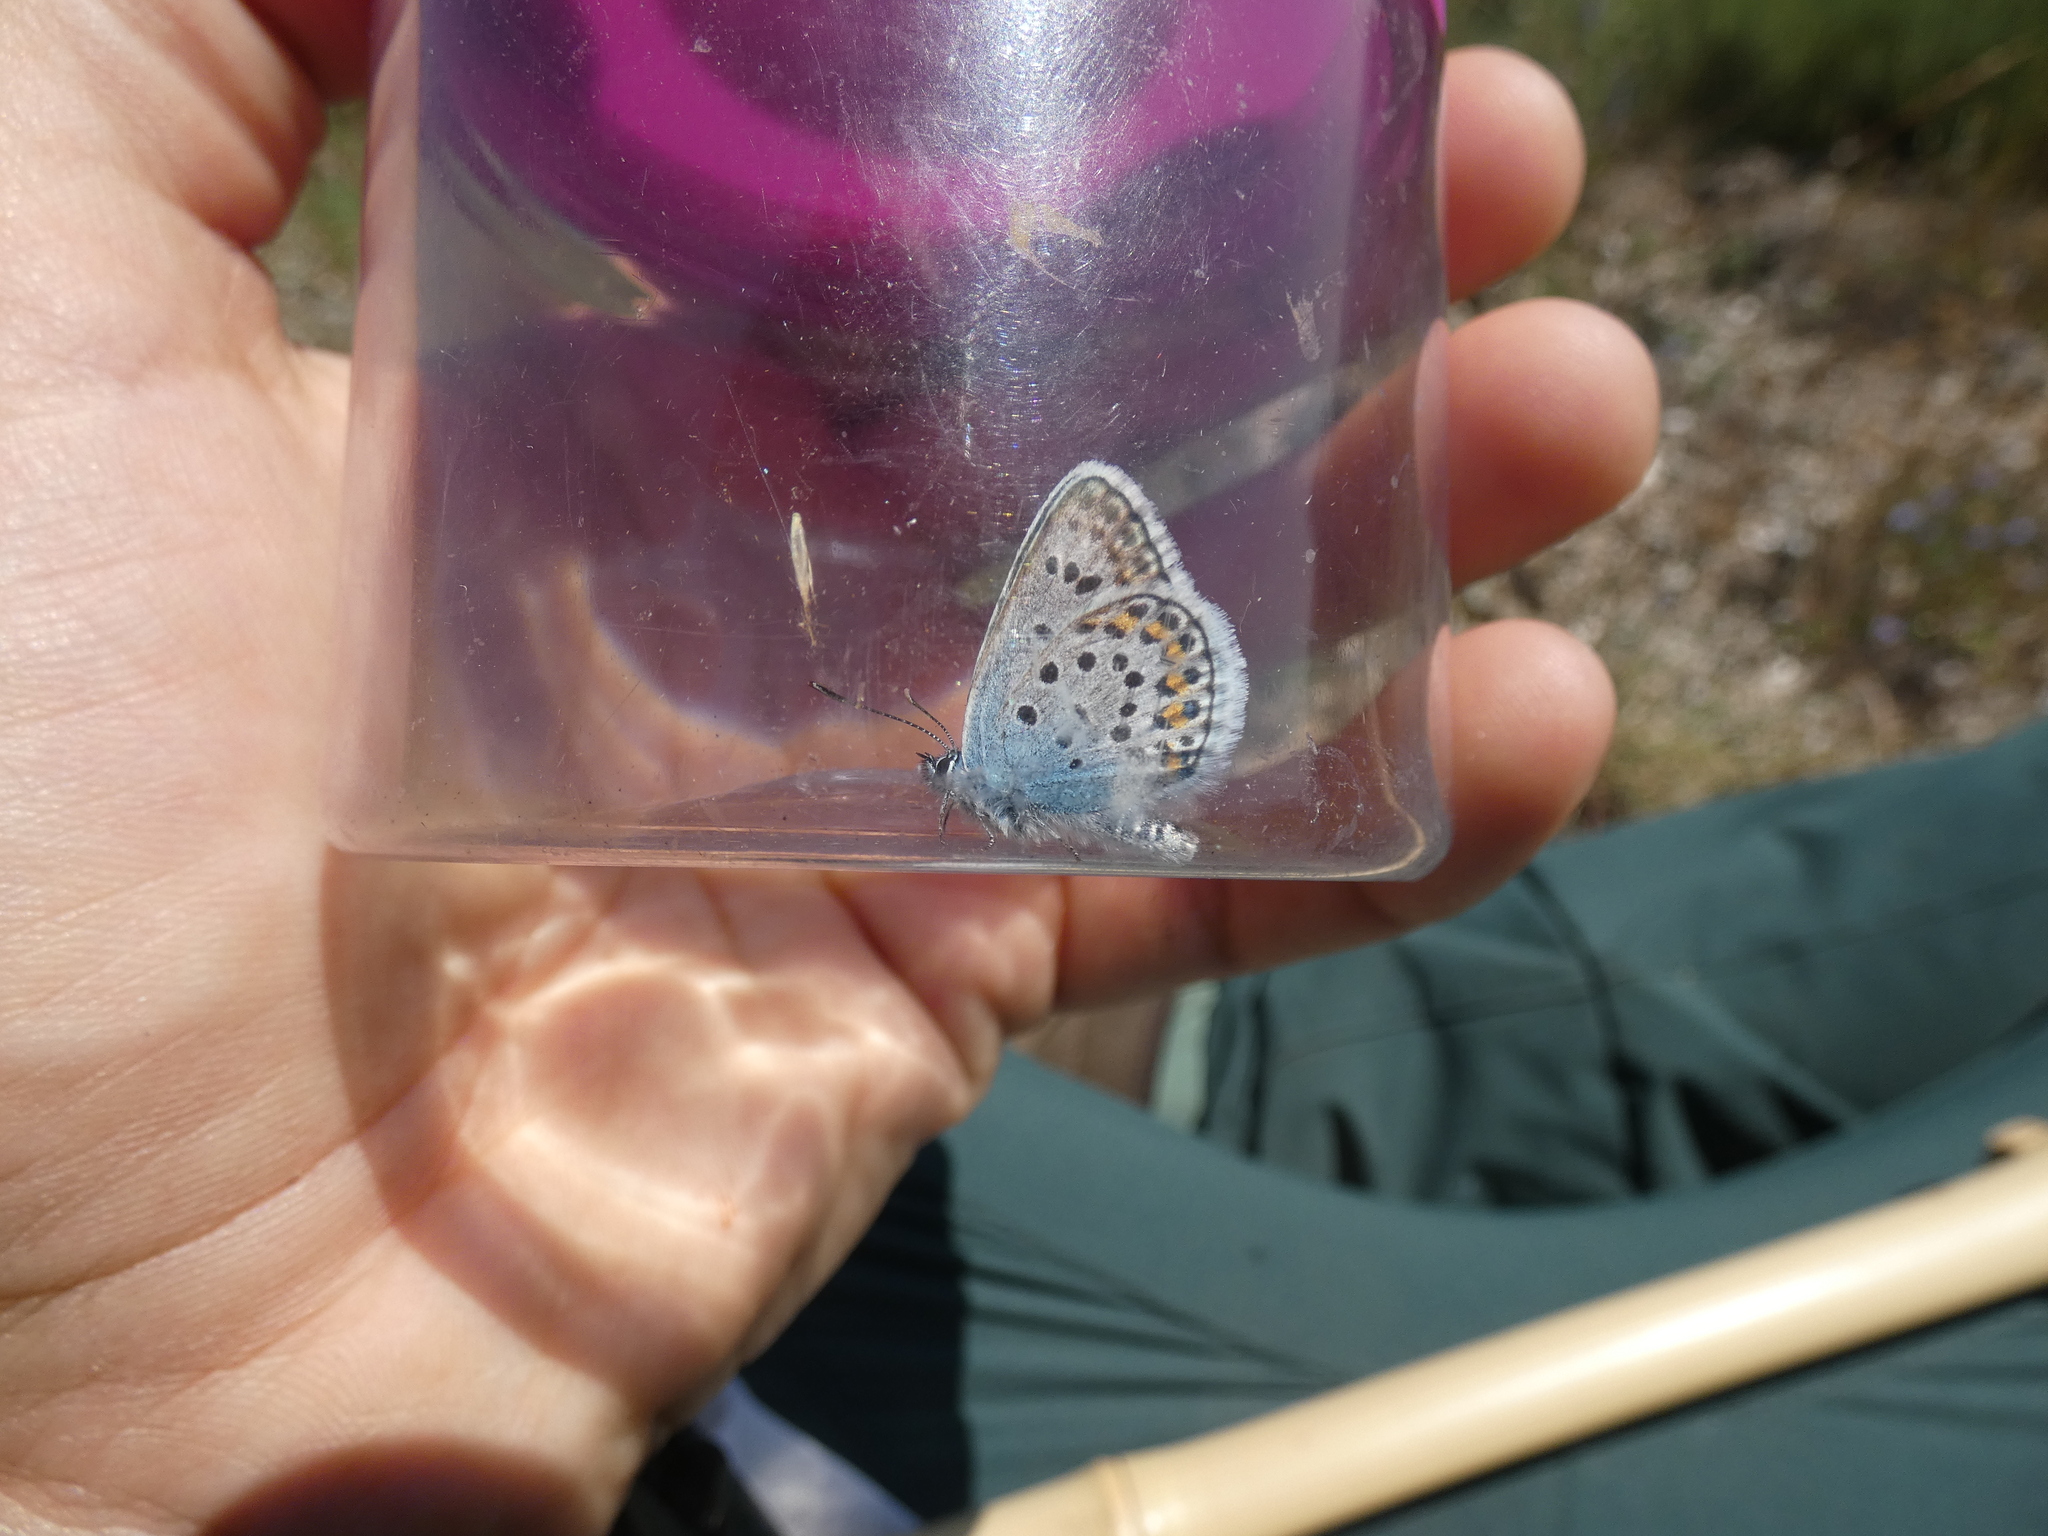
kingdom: Animalia
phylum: Arthropoda
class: Insecta
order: Lepidoptera
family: Lycaenidae
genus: Plebejus
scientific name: Plebejus argus
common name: Silver-studded blue
